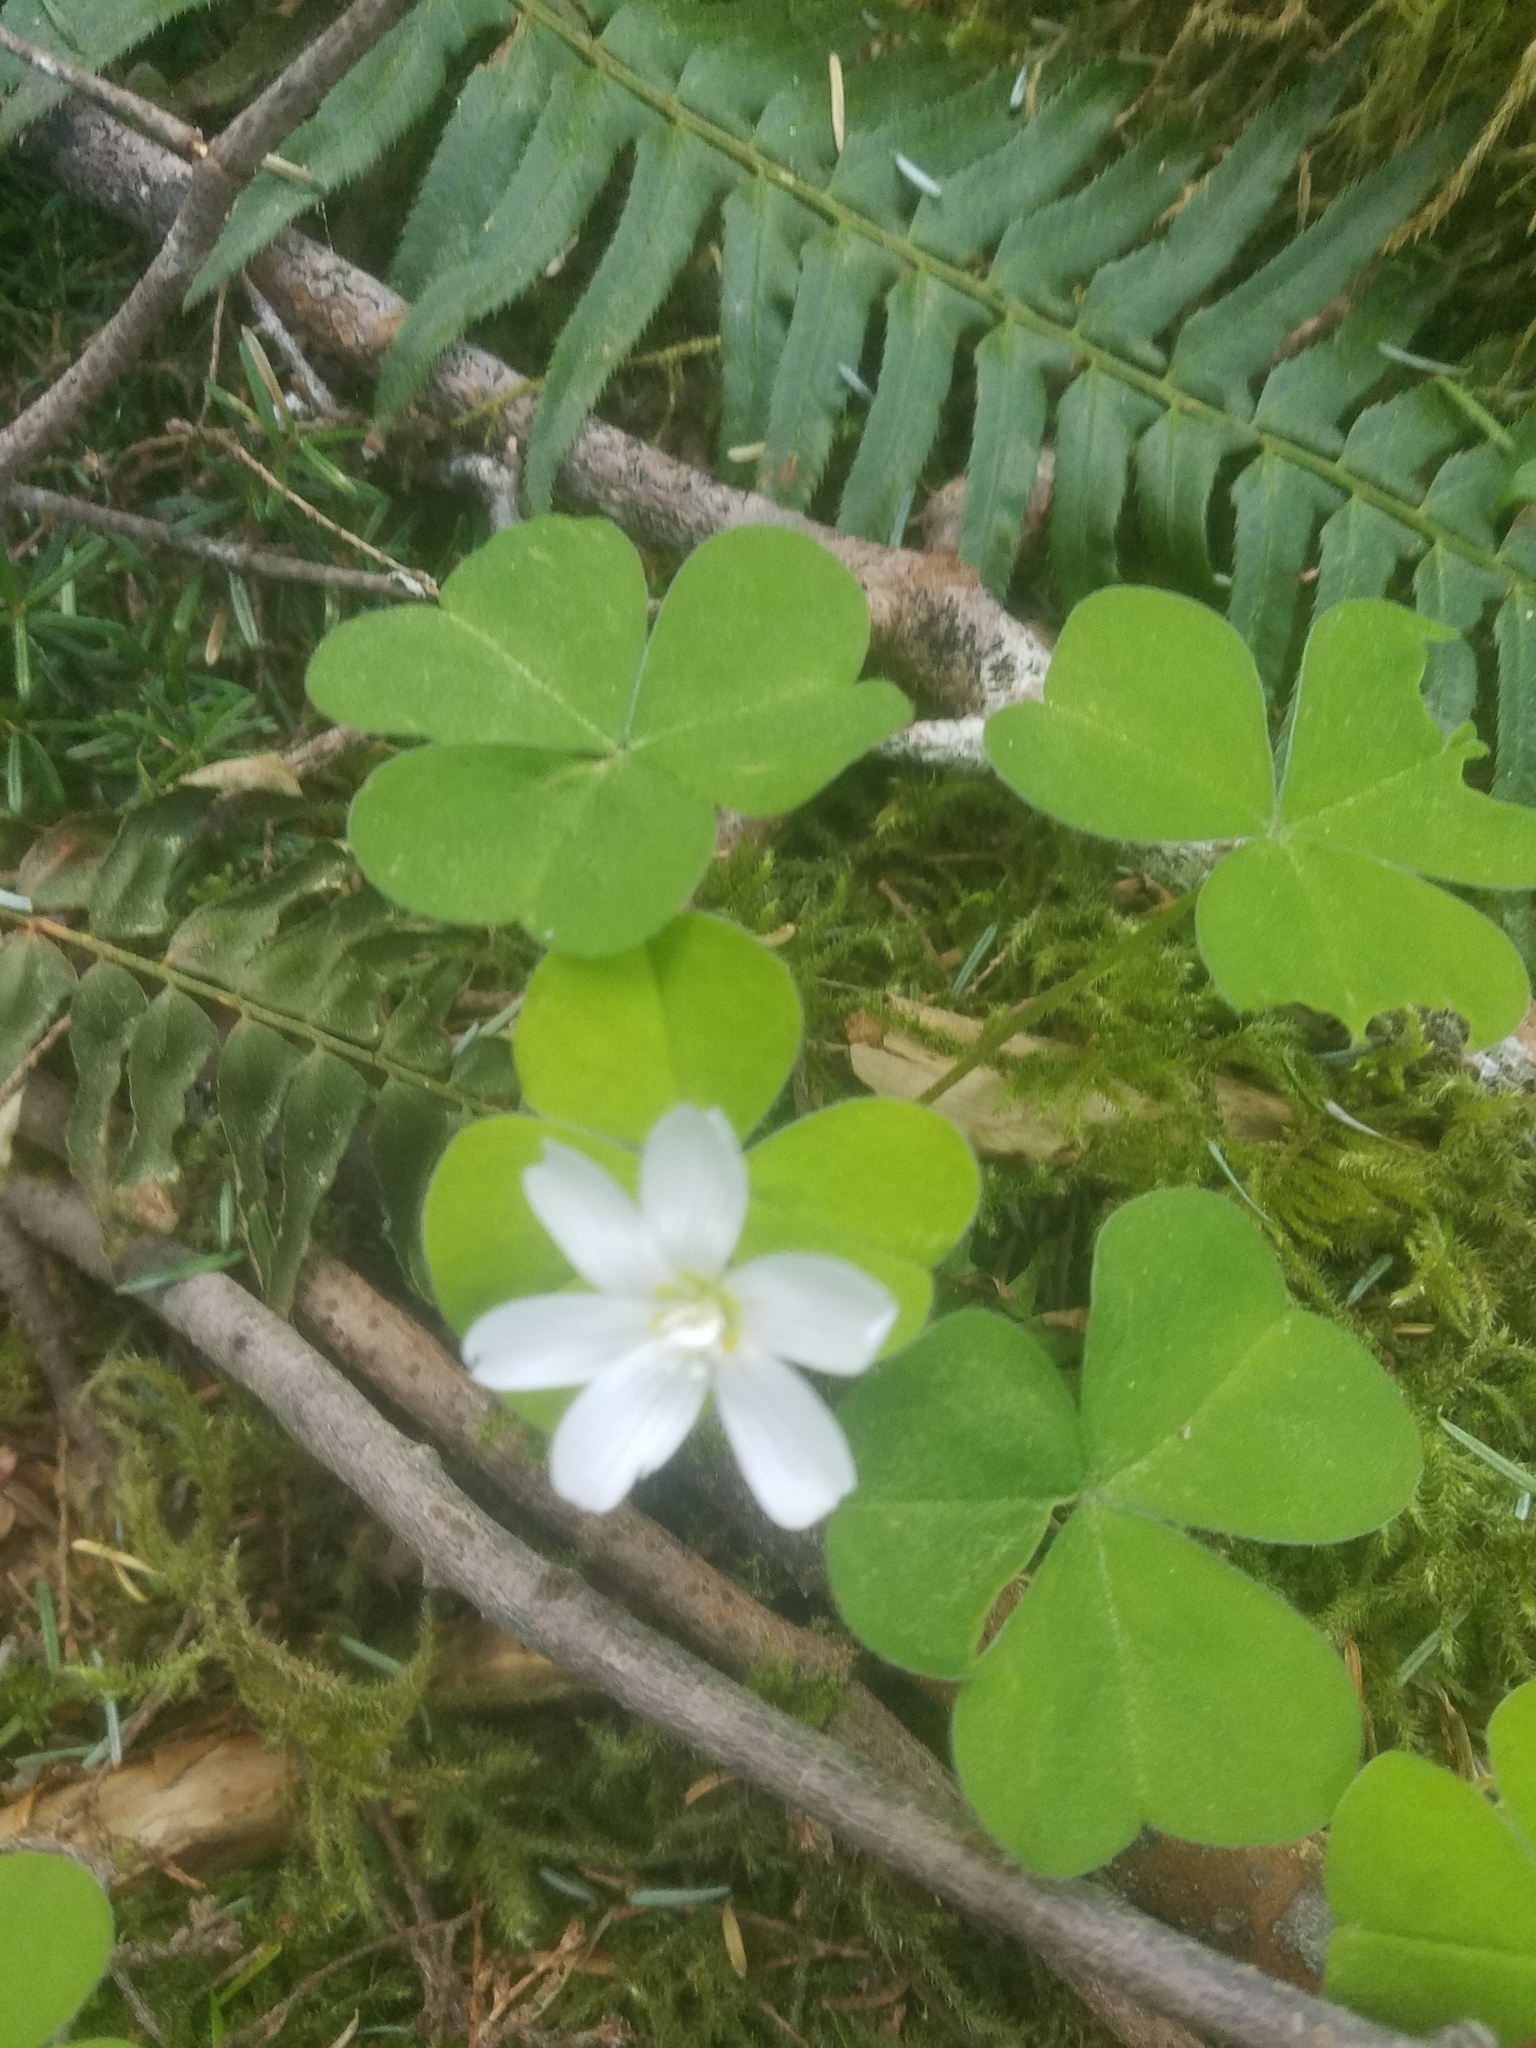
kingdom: Plantae
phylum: Tracheophyta
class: Magnoliopsida
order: Oxalidales
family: Oxalidaceae
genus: Oxalis
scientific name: Oxalis oregana
